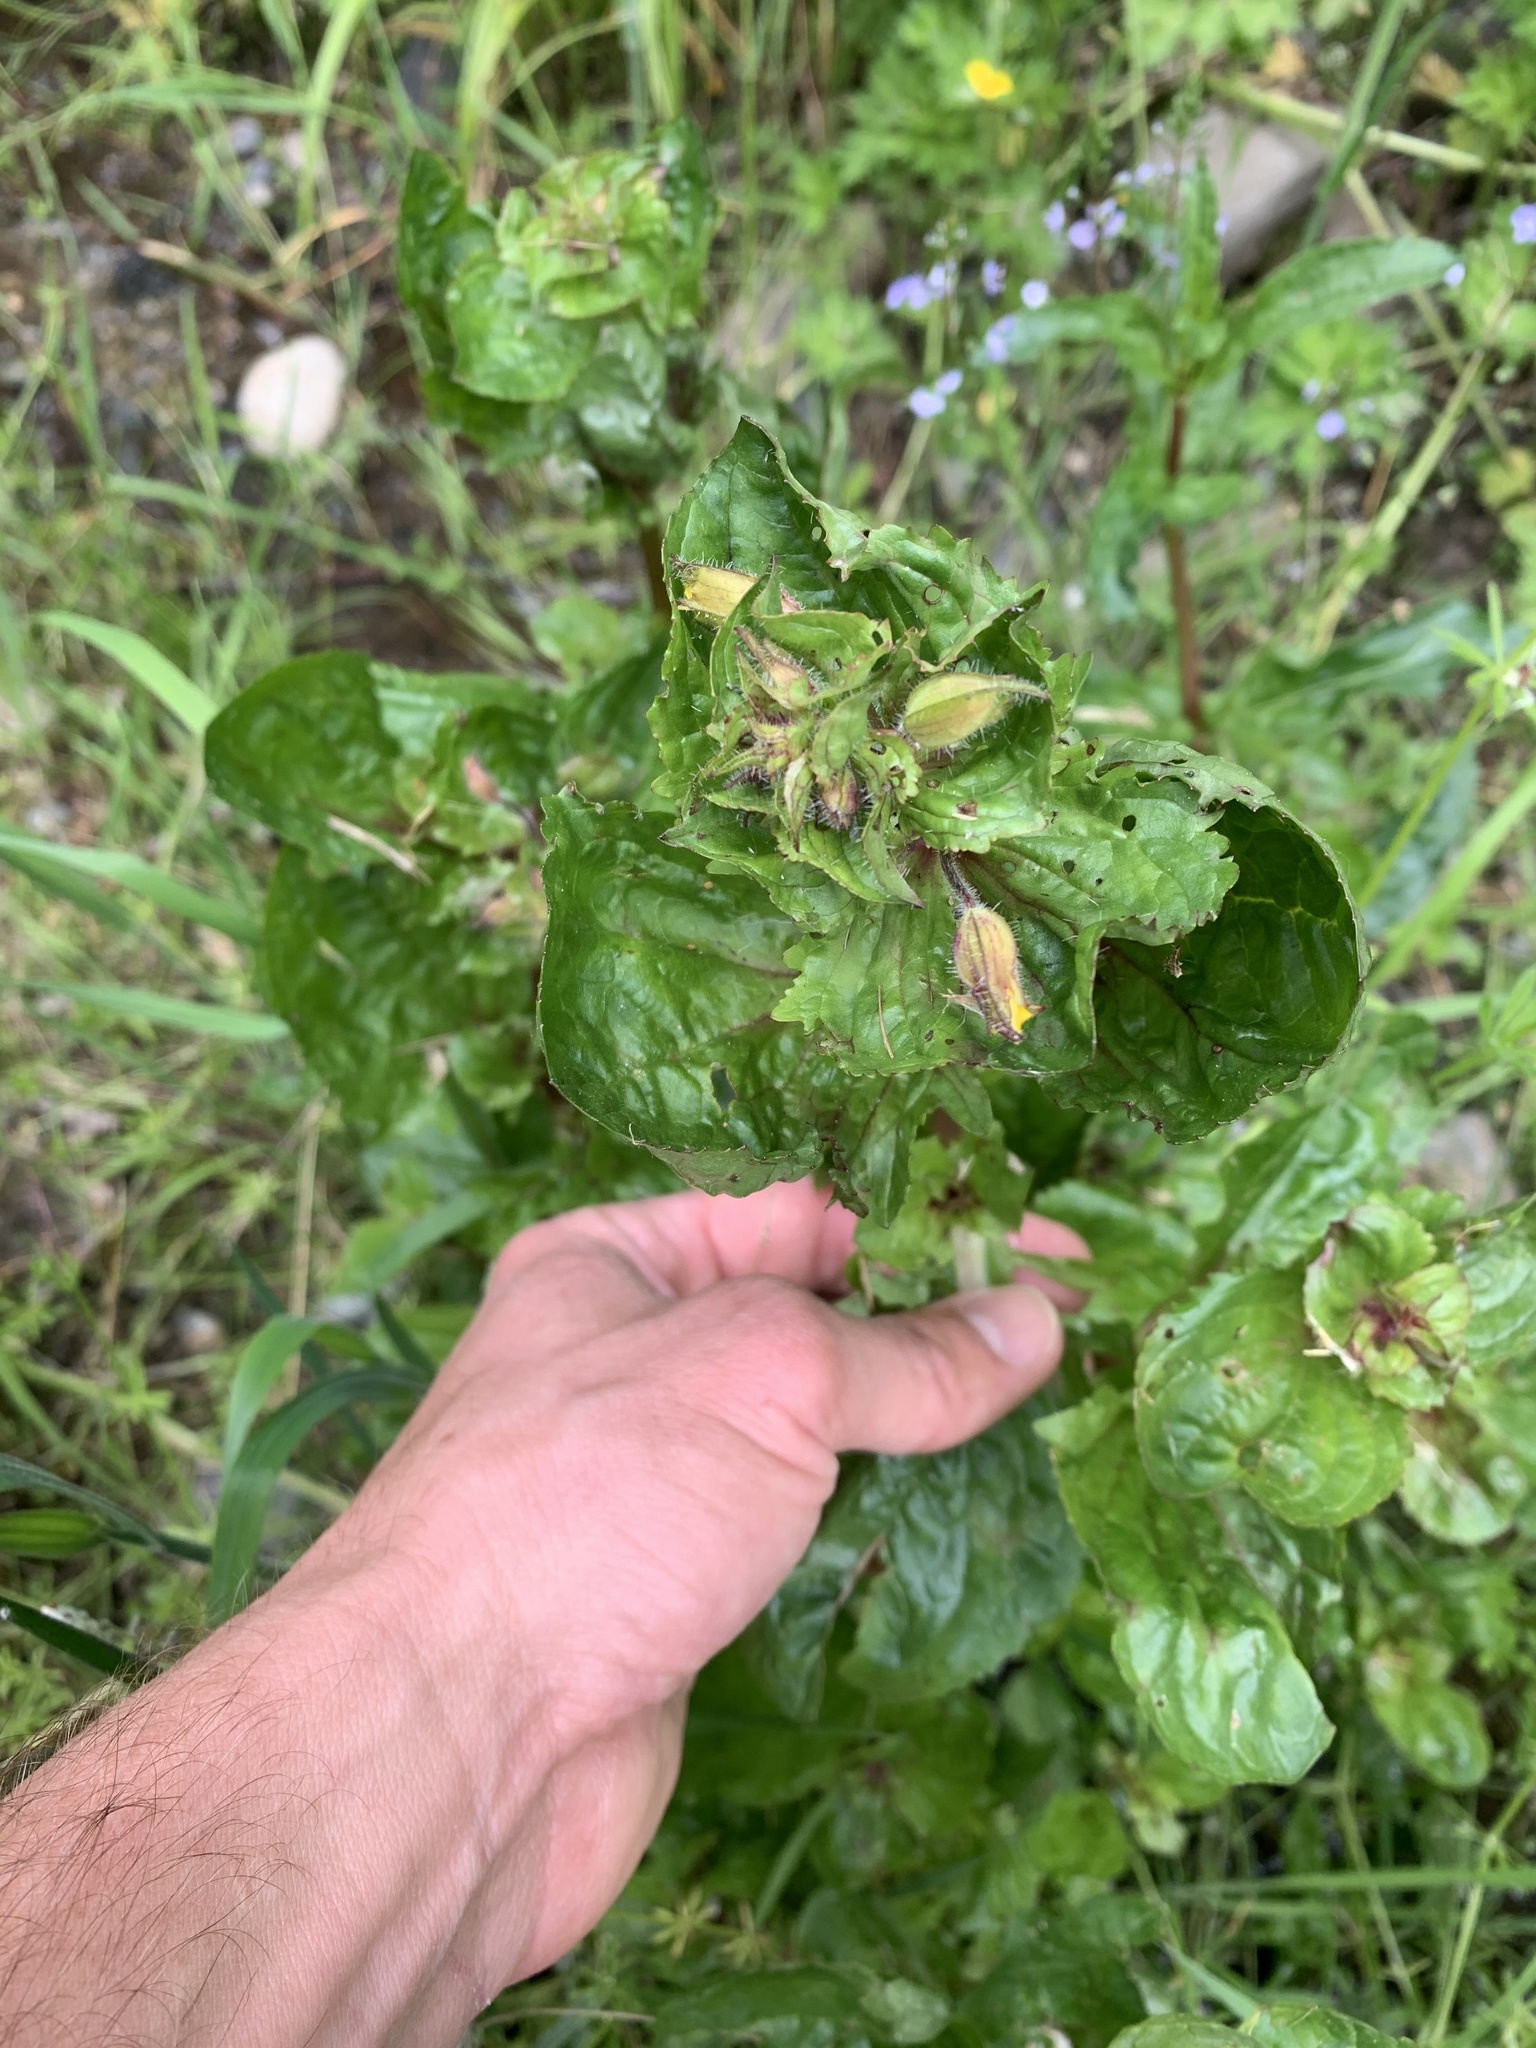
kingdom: Plantae
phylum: Tracheophyta
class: Magnoliopsida
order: Lamiales
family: Phrymaceae
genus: Erythranthe
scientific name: Erythranthe guttata
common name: Monkeyflower
